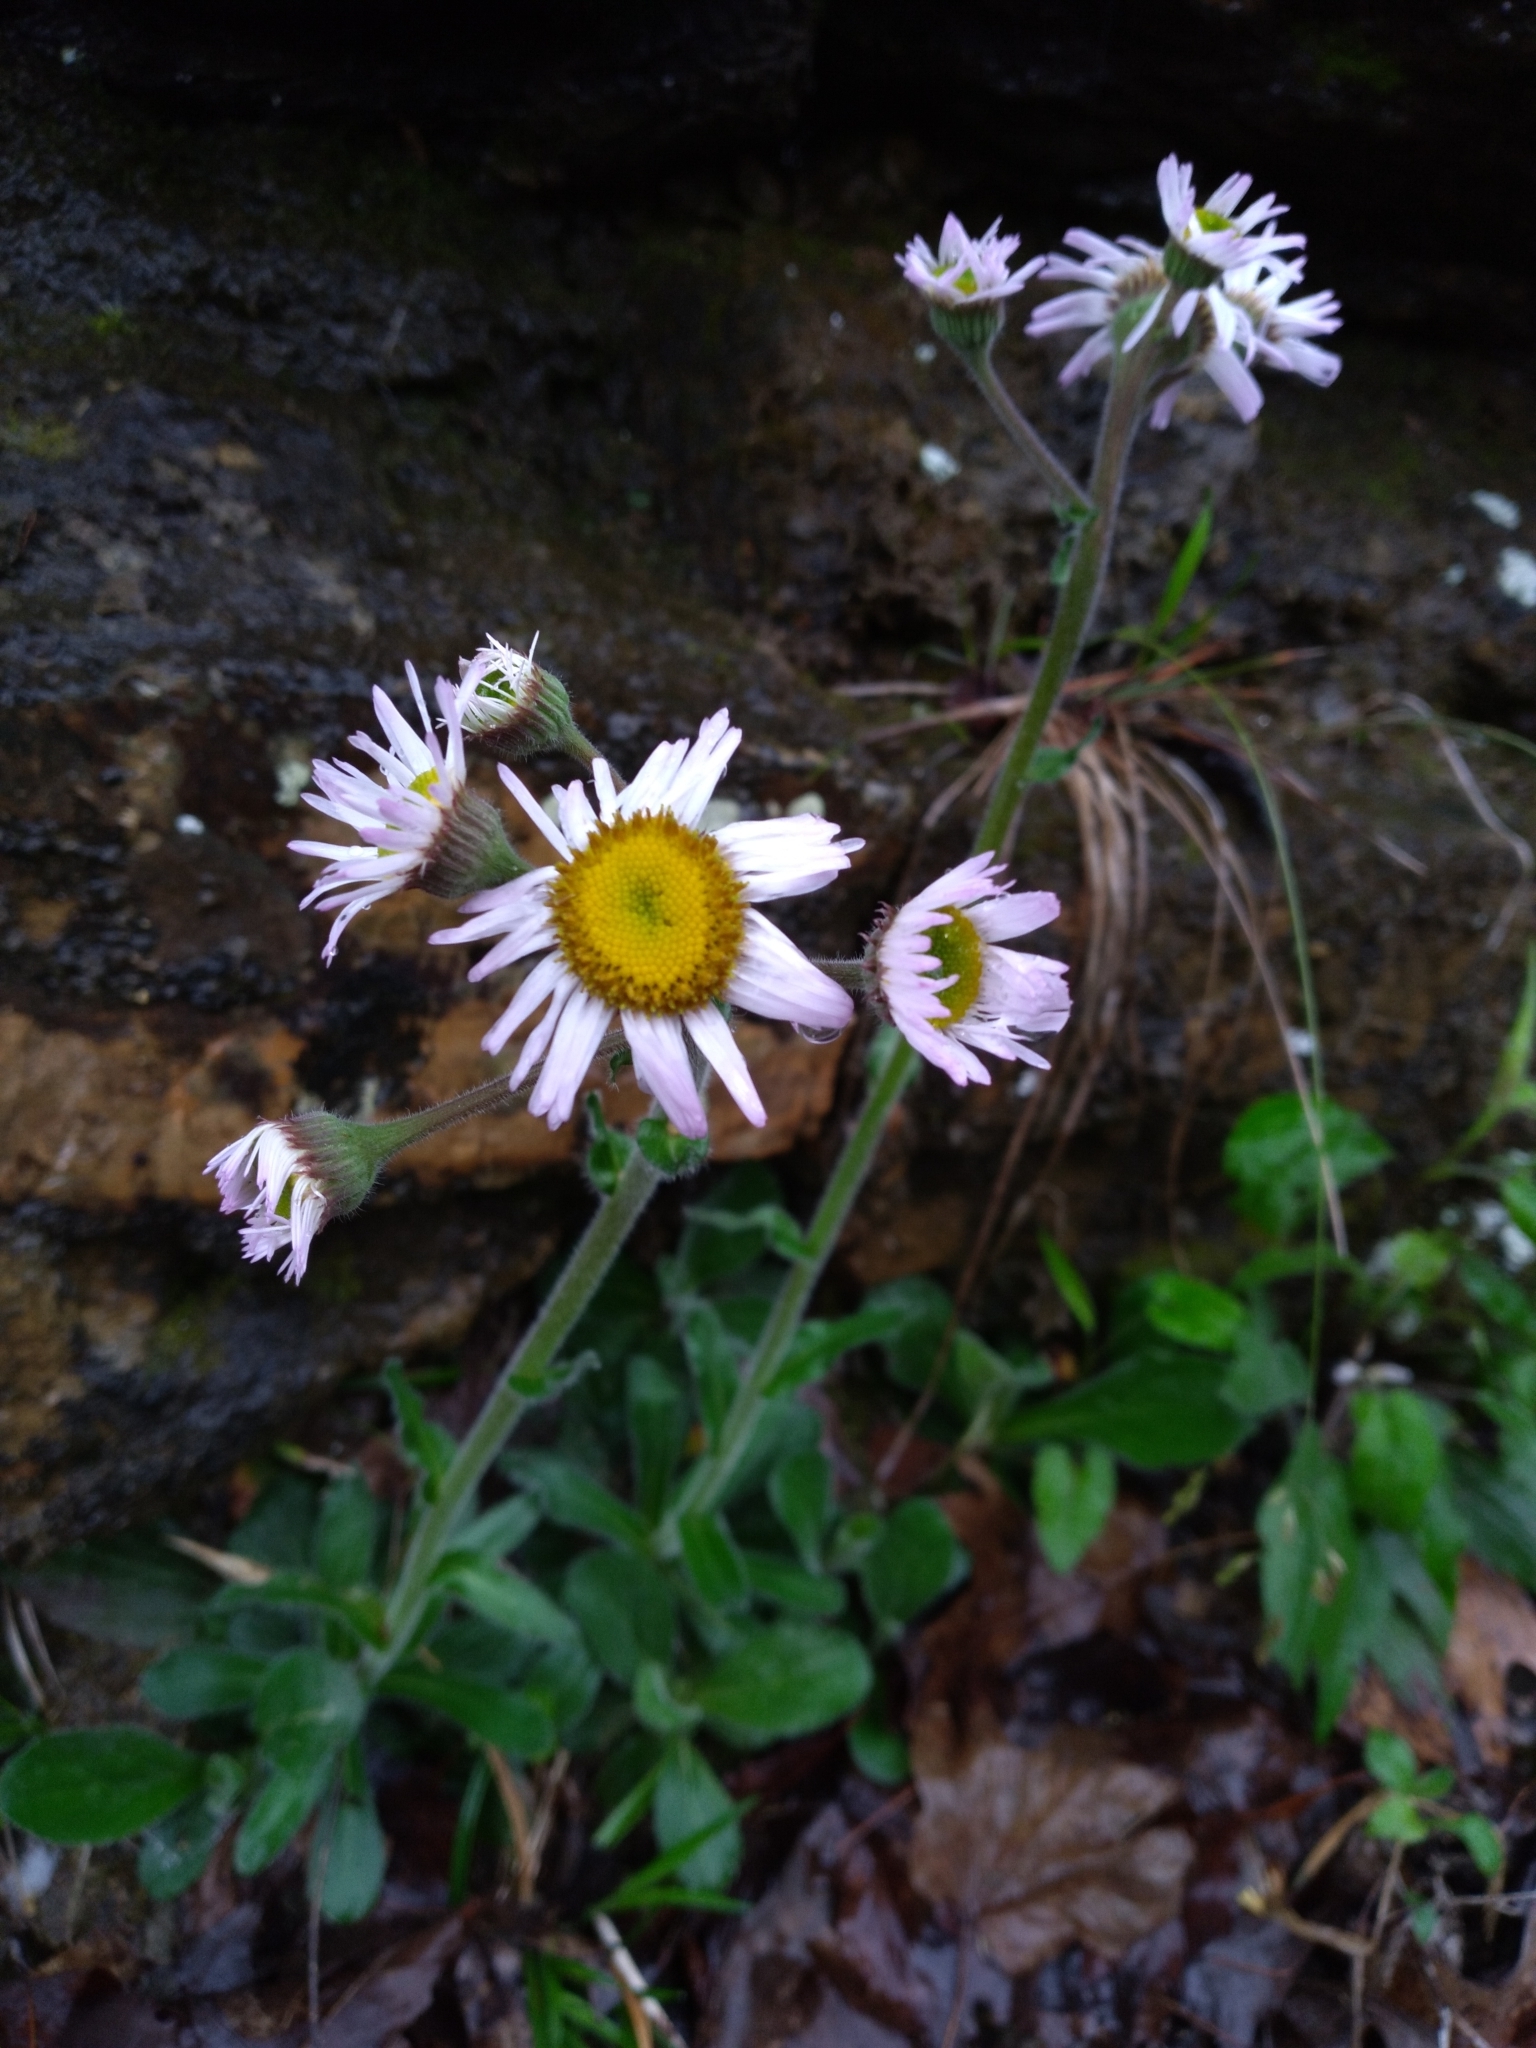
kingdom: Plantae
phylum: Tracheophyta
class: Magnoliopsida
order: Asterales
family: Asteraceae
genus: Erigeron
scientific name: Erigeron pulchellus
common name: Hairy fleabane
